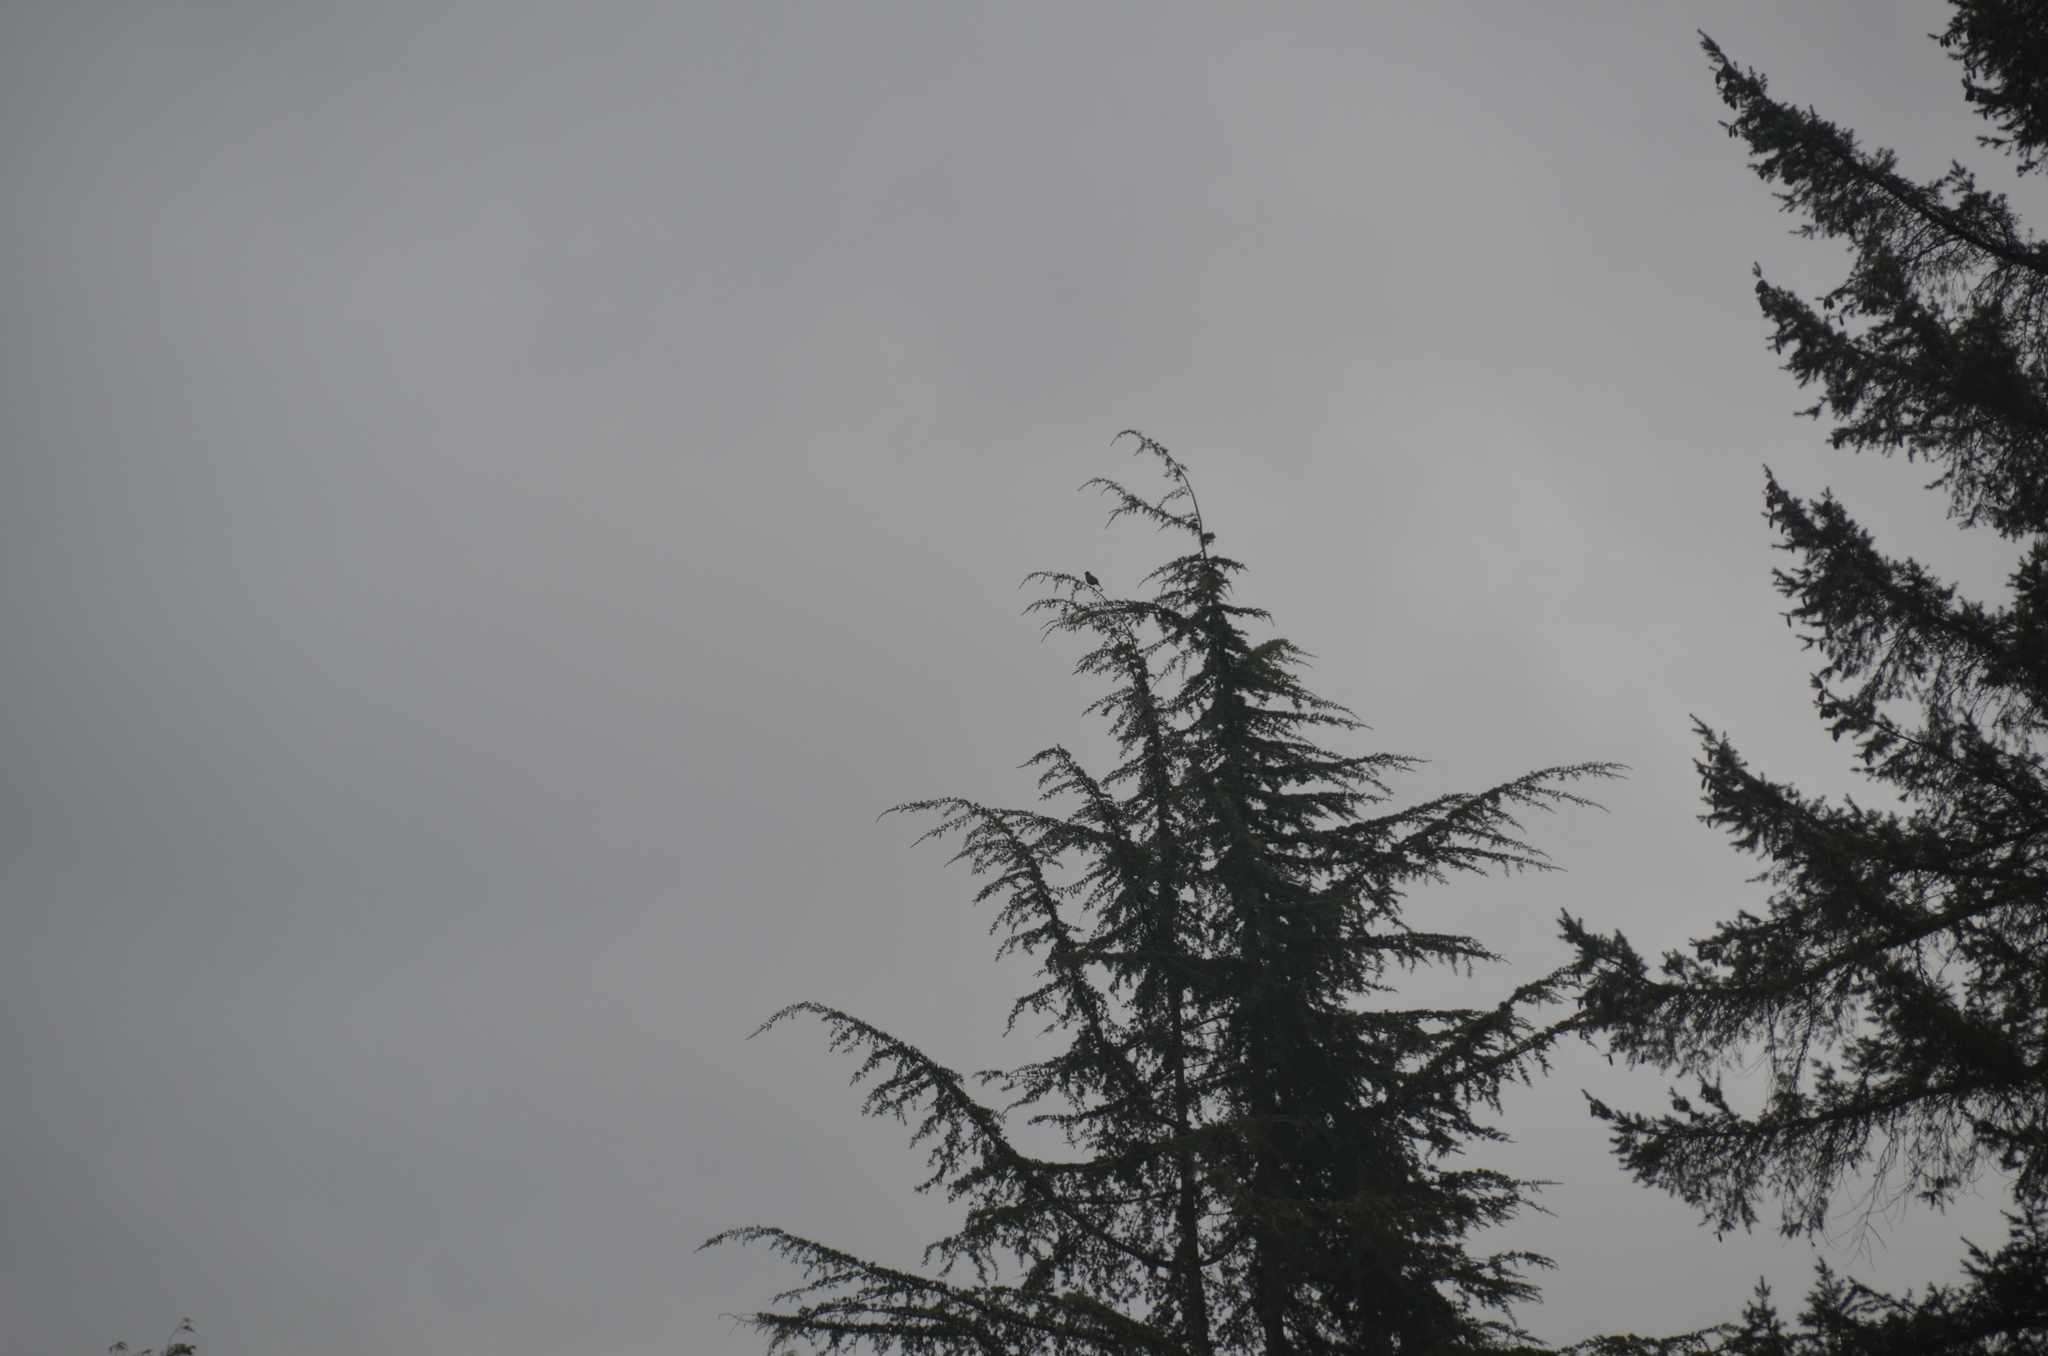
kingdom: Animalia
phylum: Chordata
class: Aves
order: Passeriformes
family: Turdidae
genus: Turdus
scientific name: Turdus migratorius
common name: American robin
